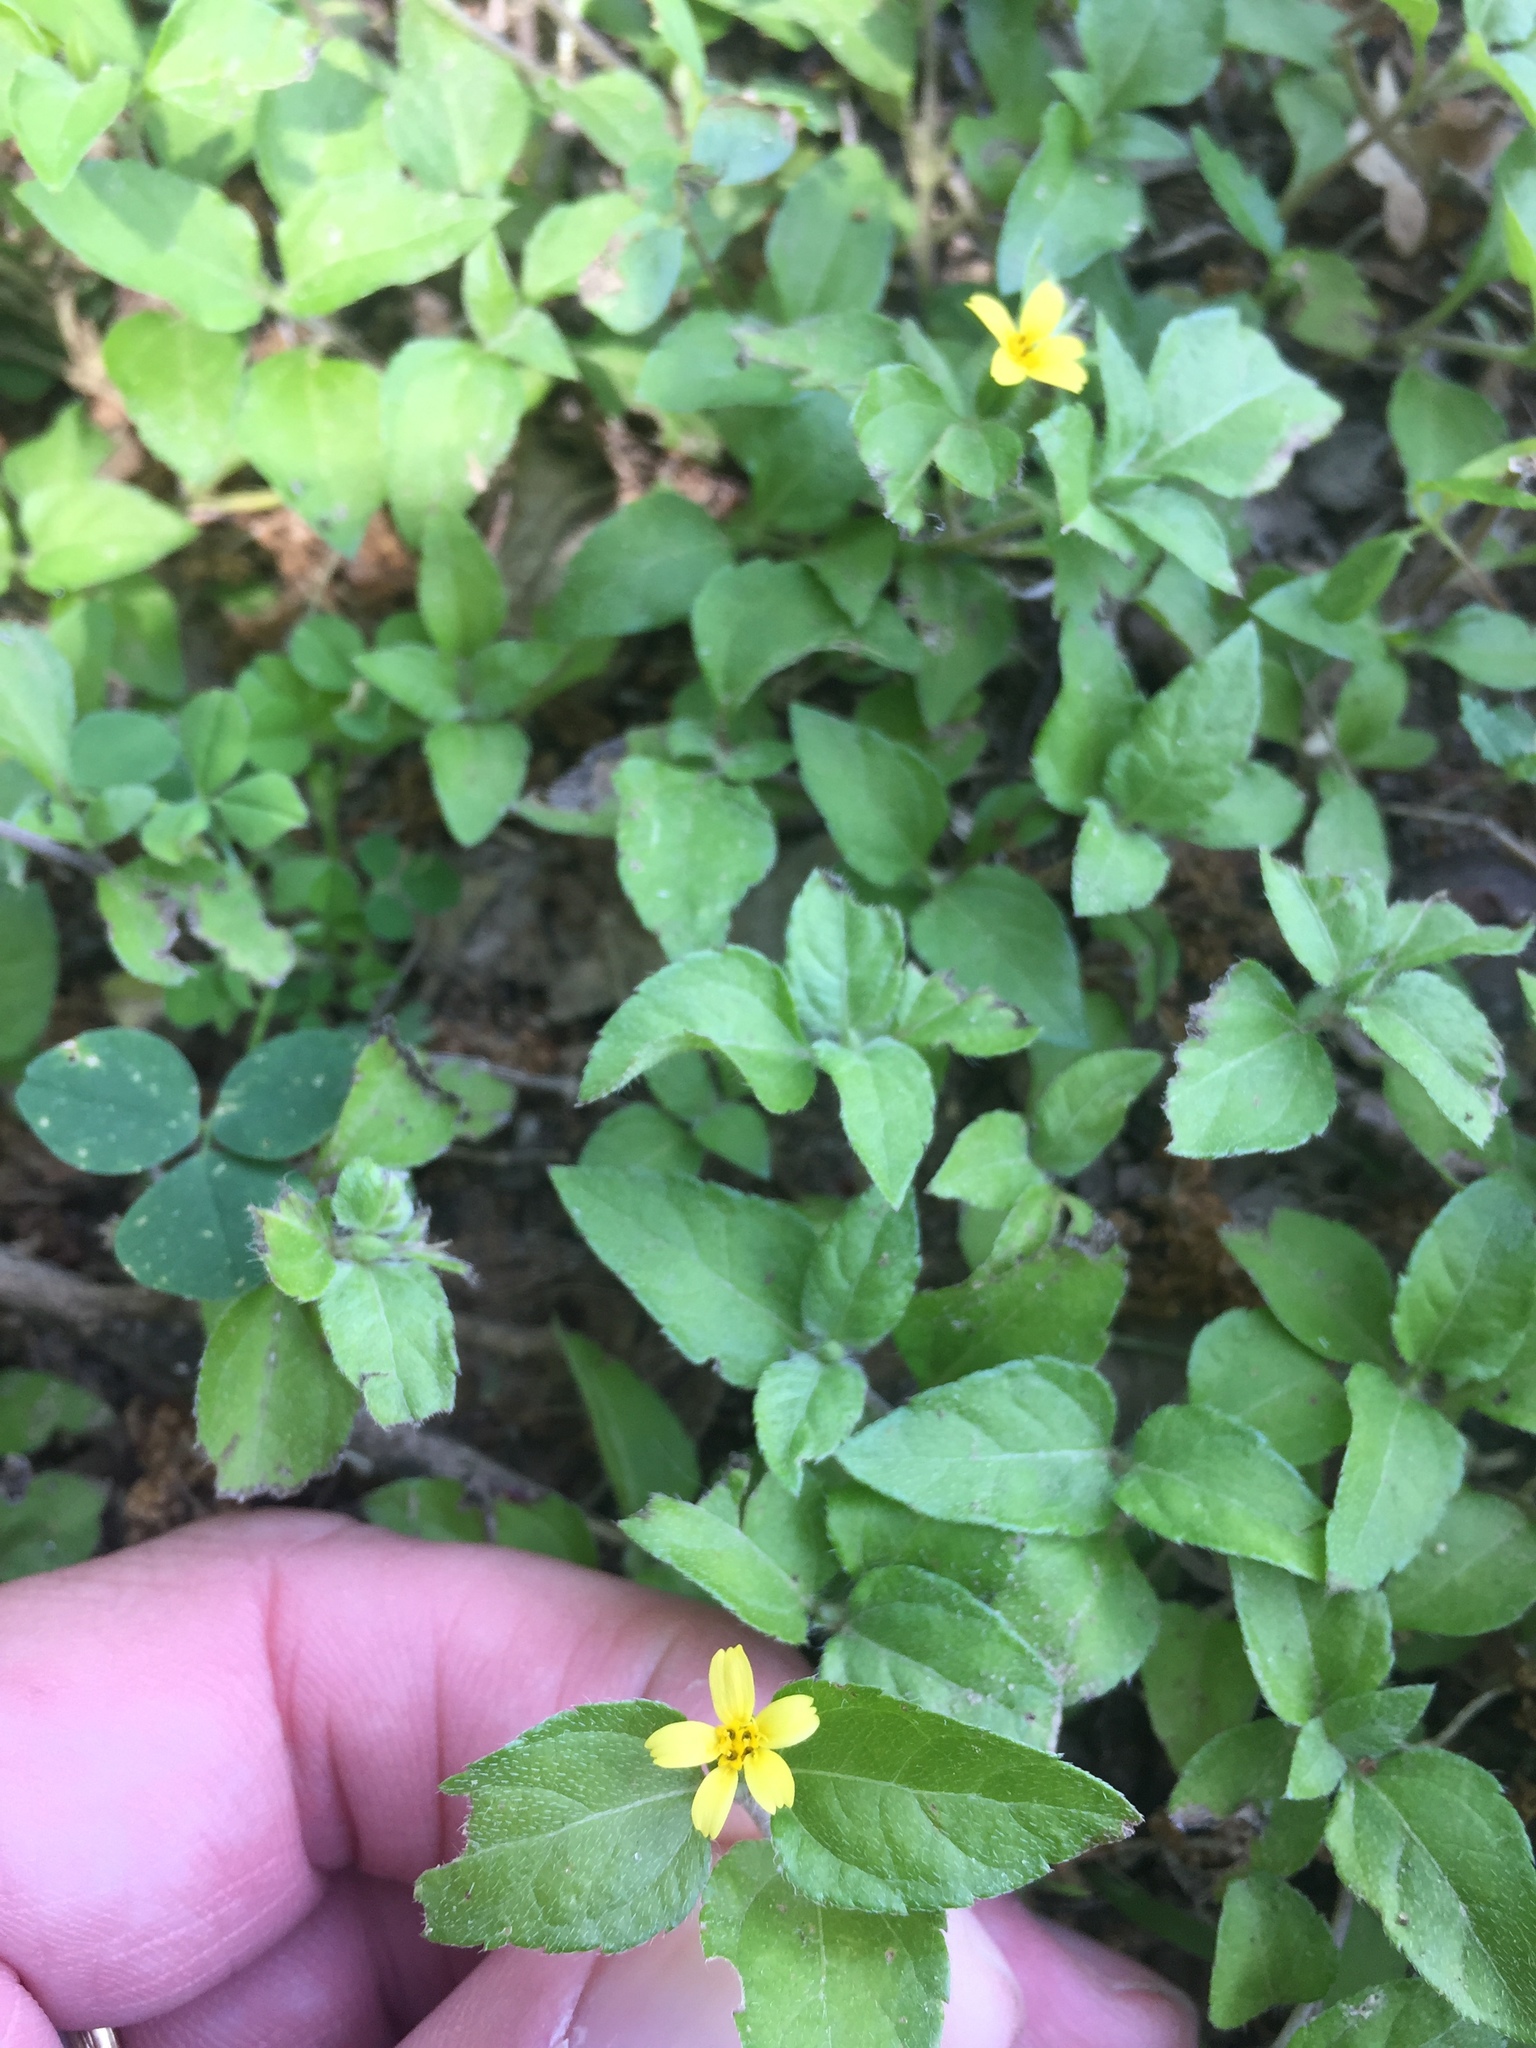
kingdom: Plantae
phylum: Tracheophyta
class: Magnoliopsida
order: Asterales
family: Asteraceae
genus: Calyptocarpus
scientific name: Calyptocarpus vialis
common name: Straggler daisy
